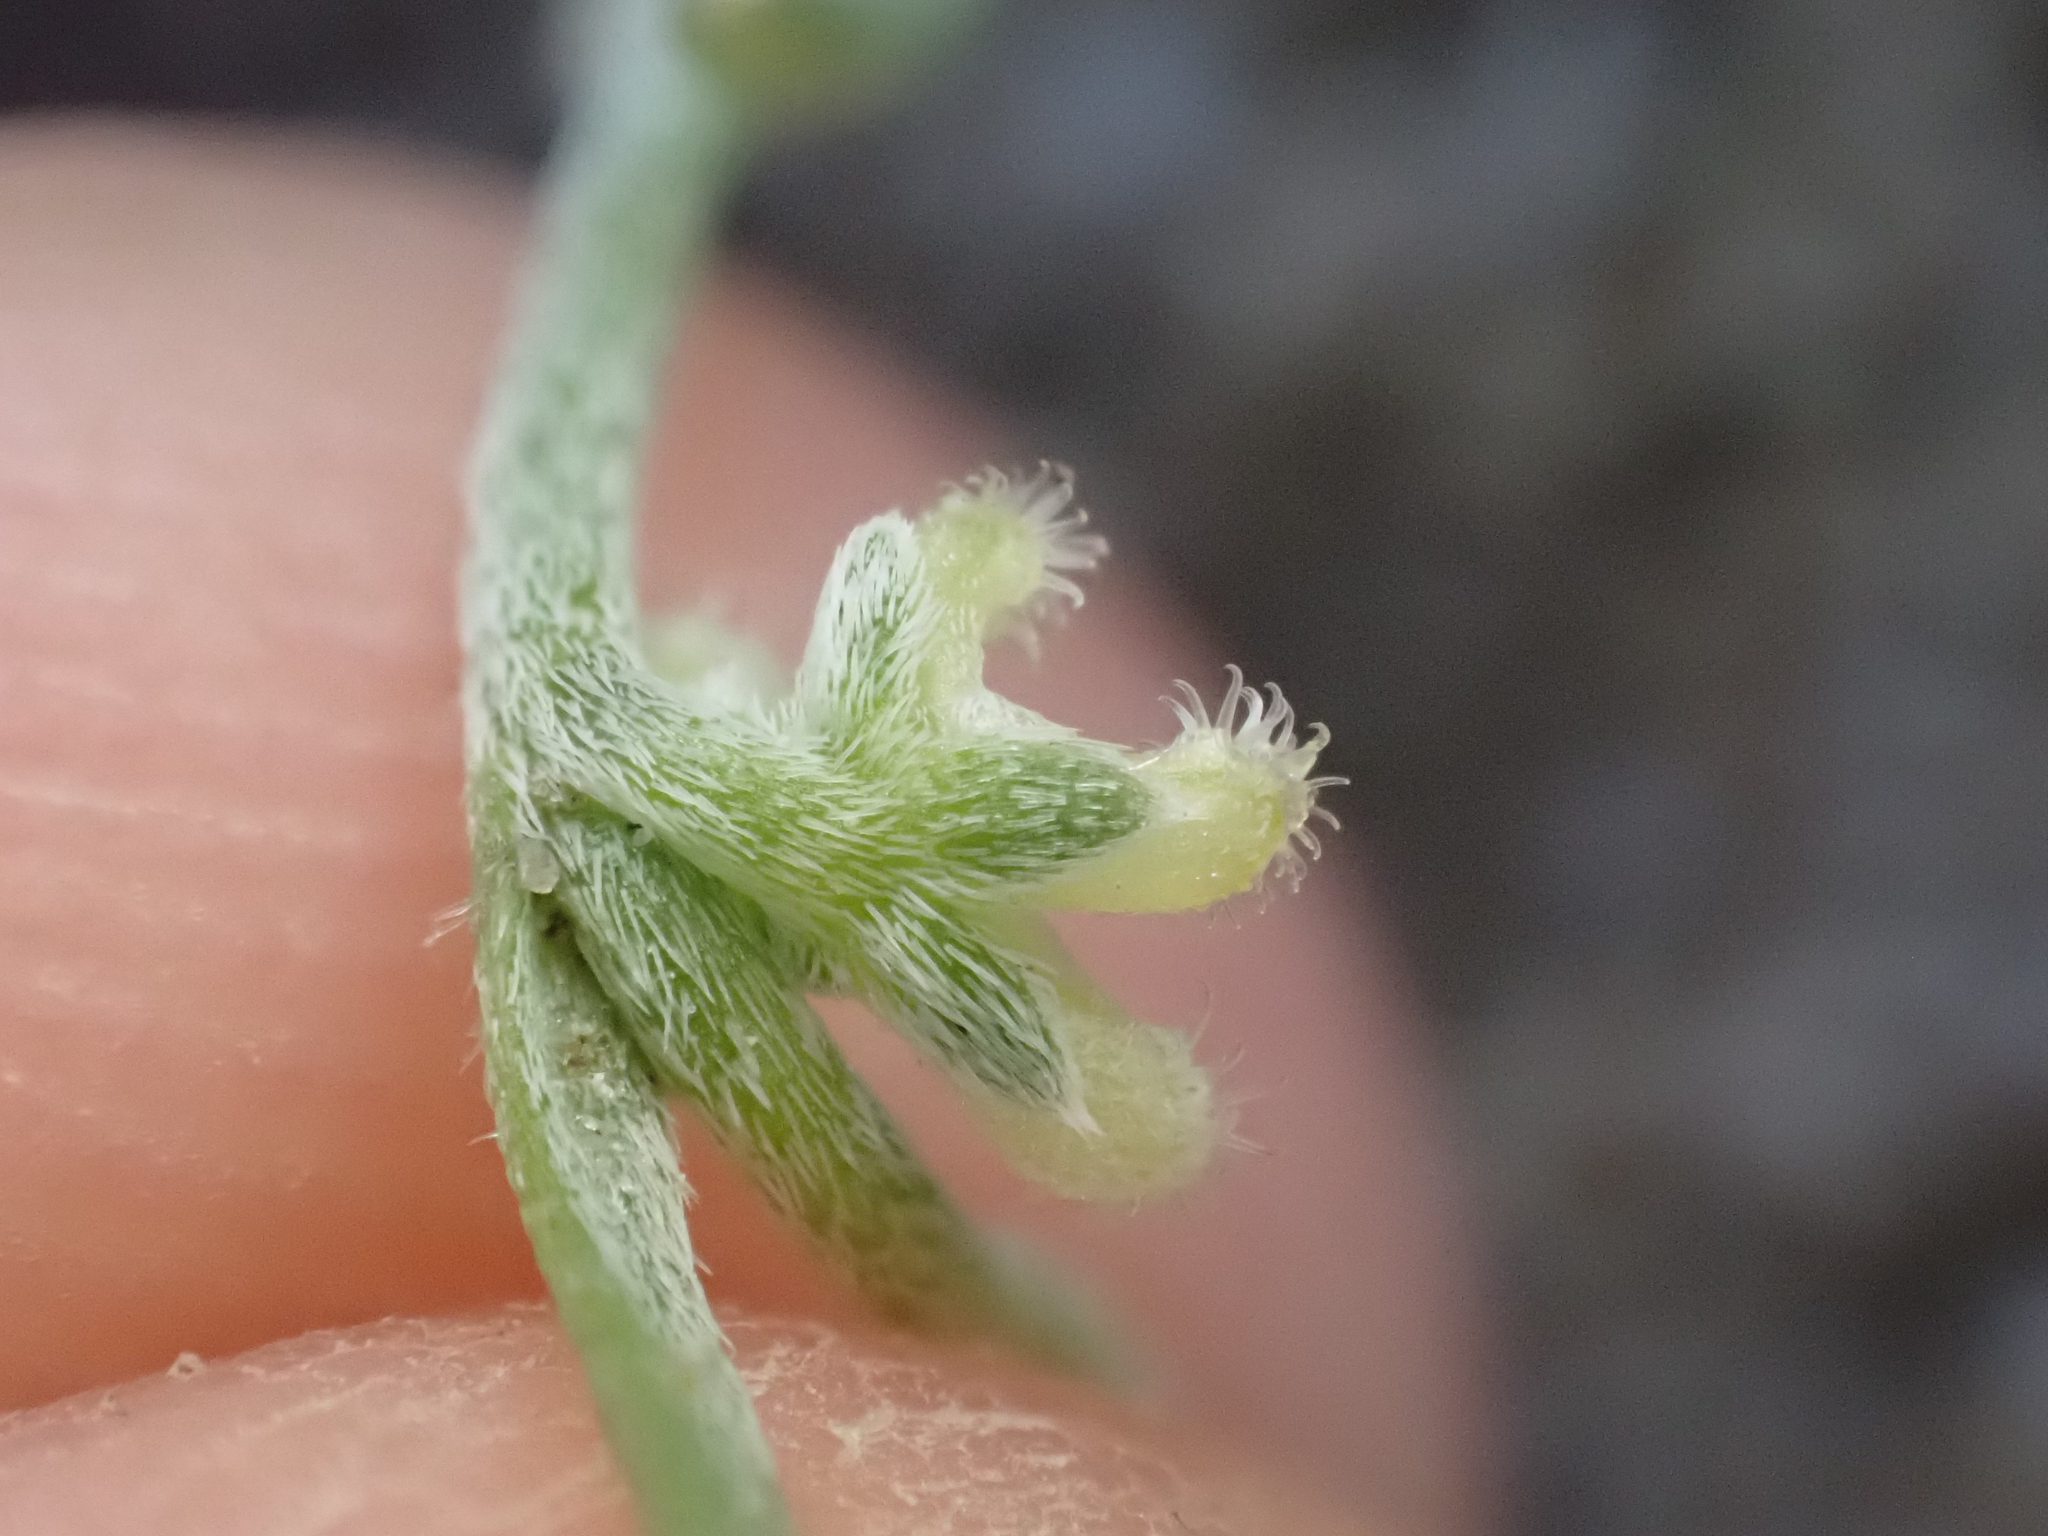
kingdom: Plantae
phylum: Tracheophyta
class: Magnoliopsida
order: Boraginales
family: Boraginaceae
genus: Pectocarya
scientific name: Pectocarya penicillata
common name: Short-leaved combseed
